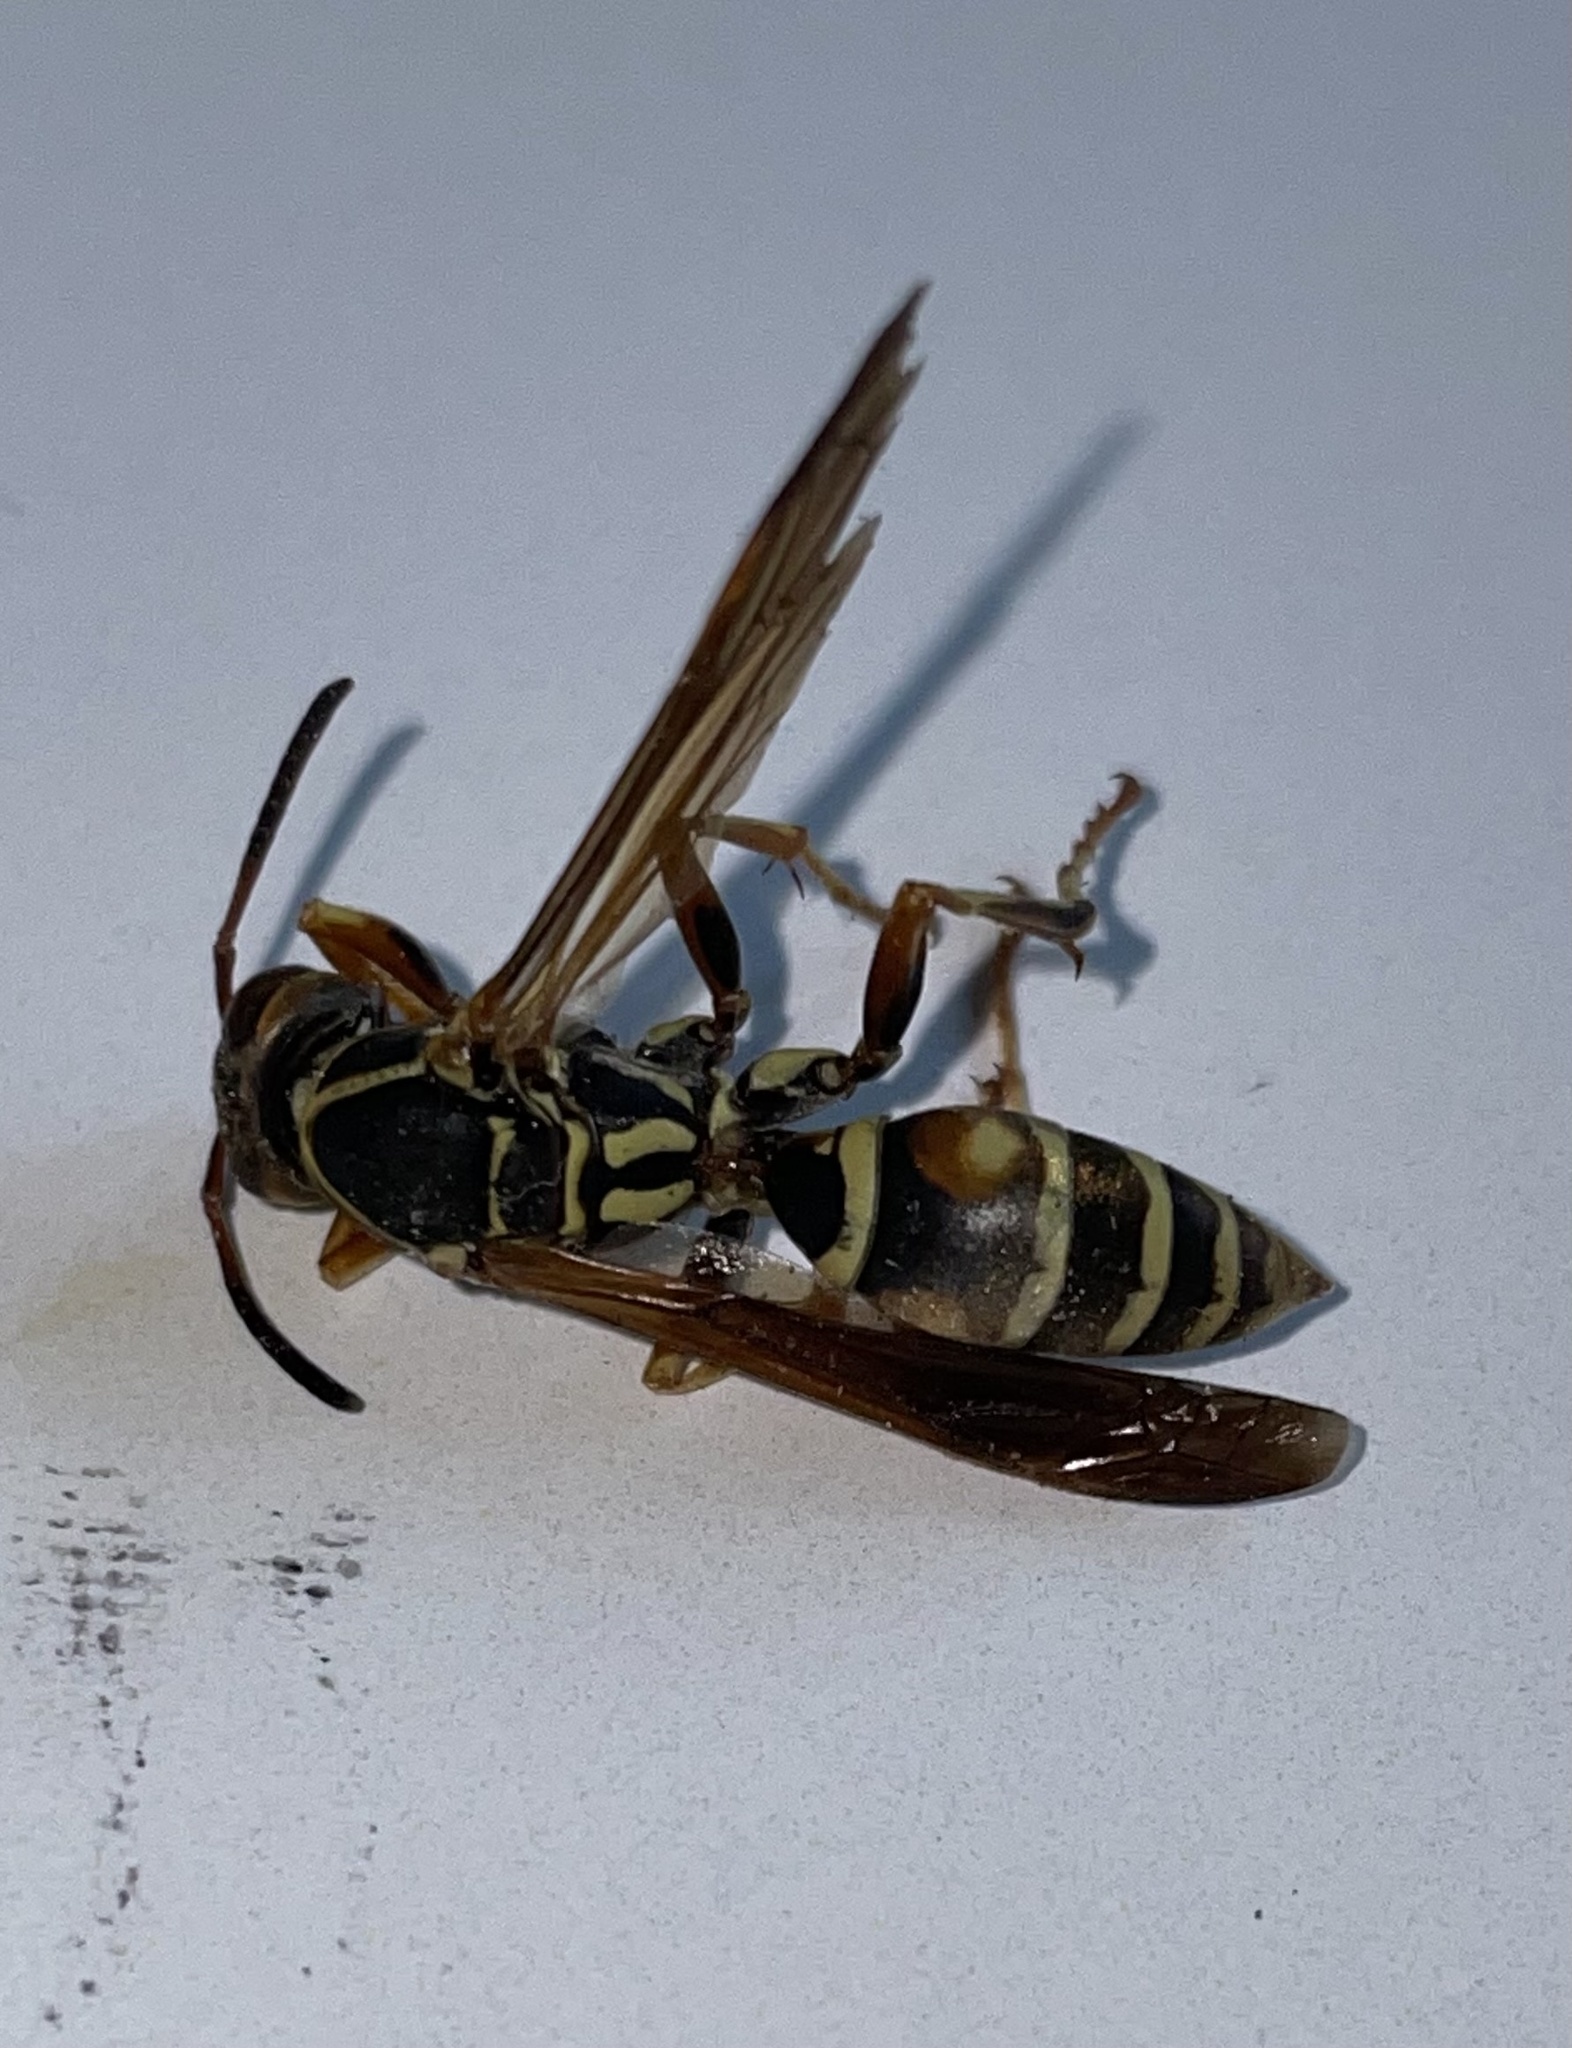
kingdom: Animalia
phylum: Arthropoda
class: Insecta
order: Hymenoptera
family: Eumenidae
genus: Polistes
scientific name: Polistes fuscatus
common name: Dark paper wasp
